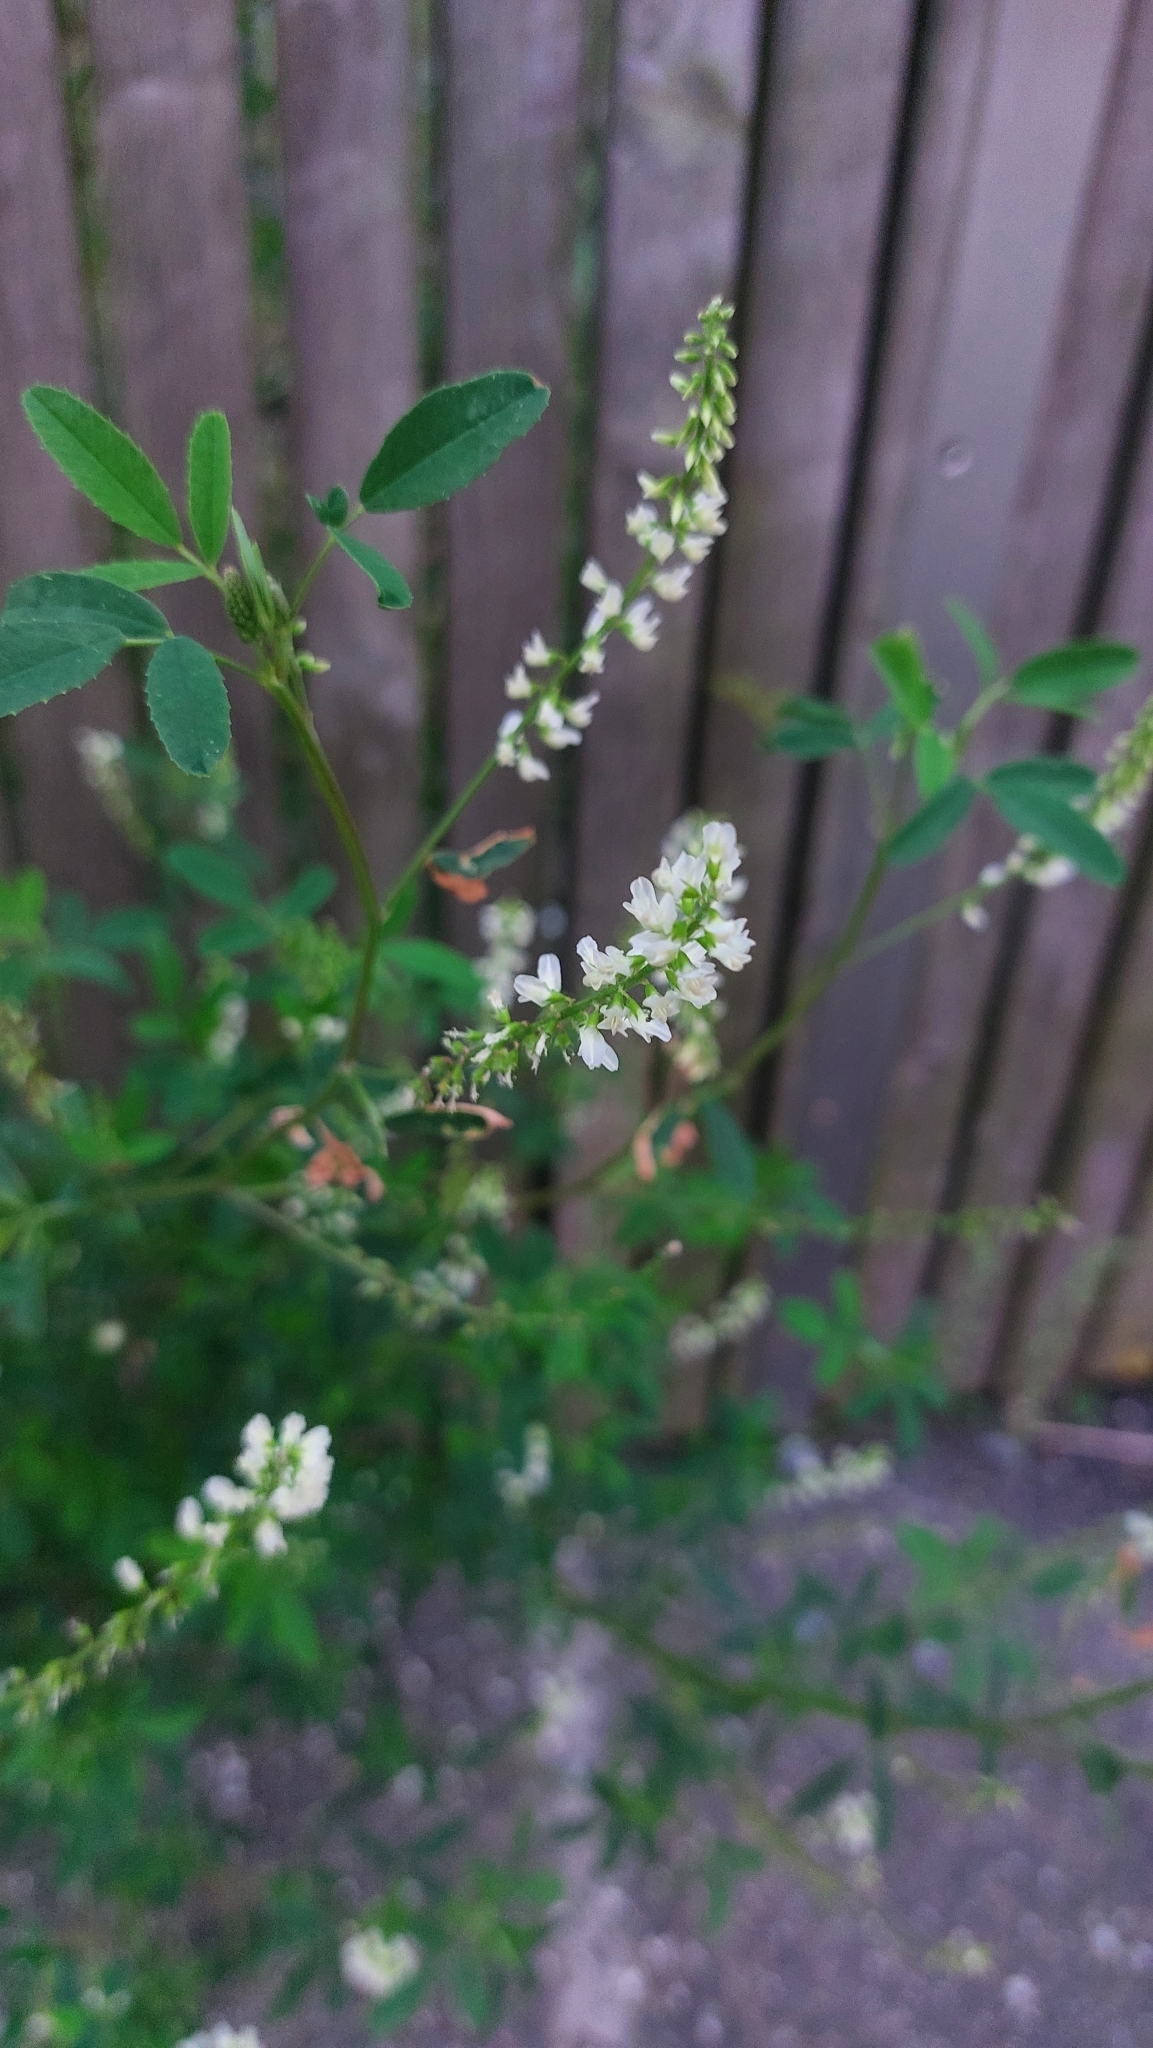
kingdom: Plantae
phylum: Tracheophyta
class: Magnoliopsida
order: Fabales
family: Fabaceae
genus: Melilotus
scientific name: Melilotus albus
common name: White melilot
